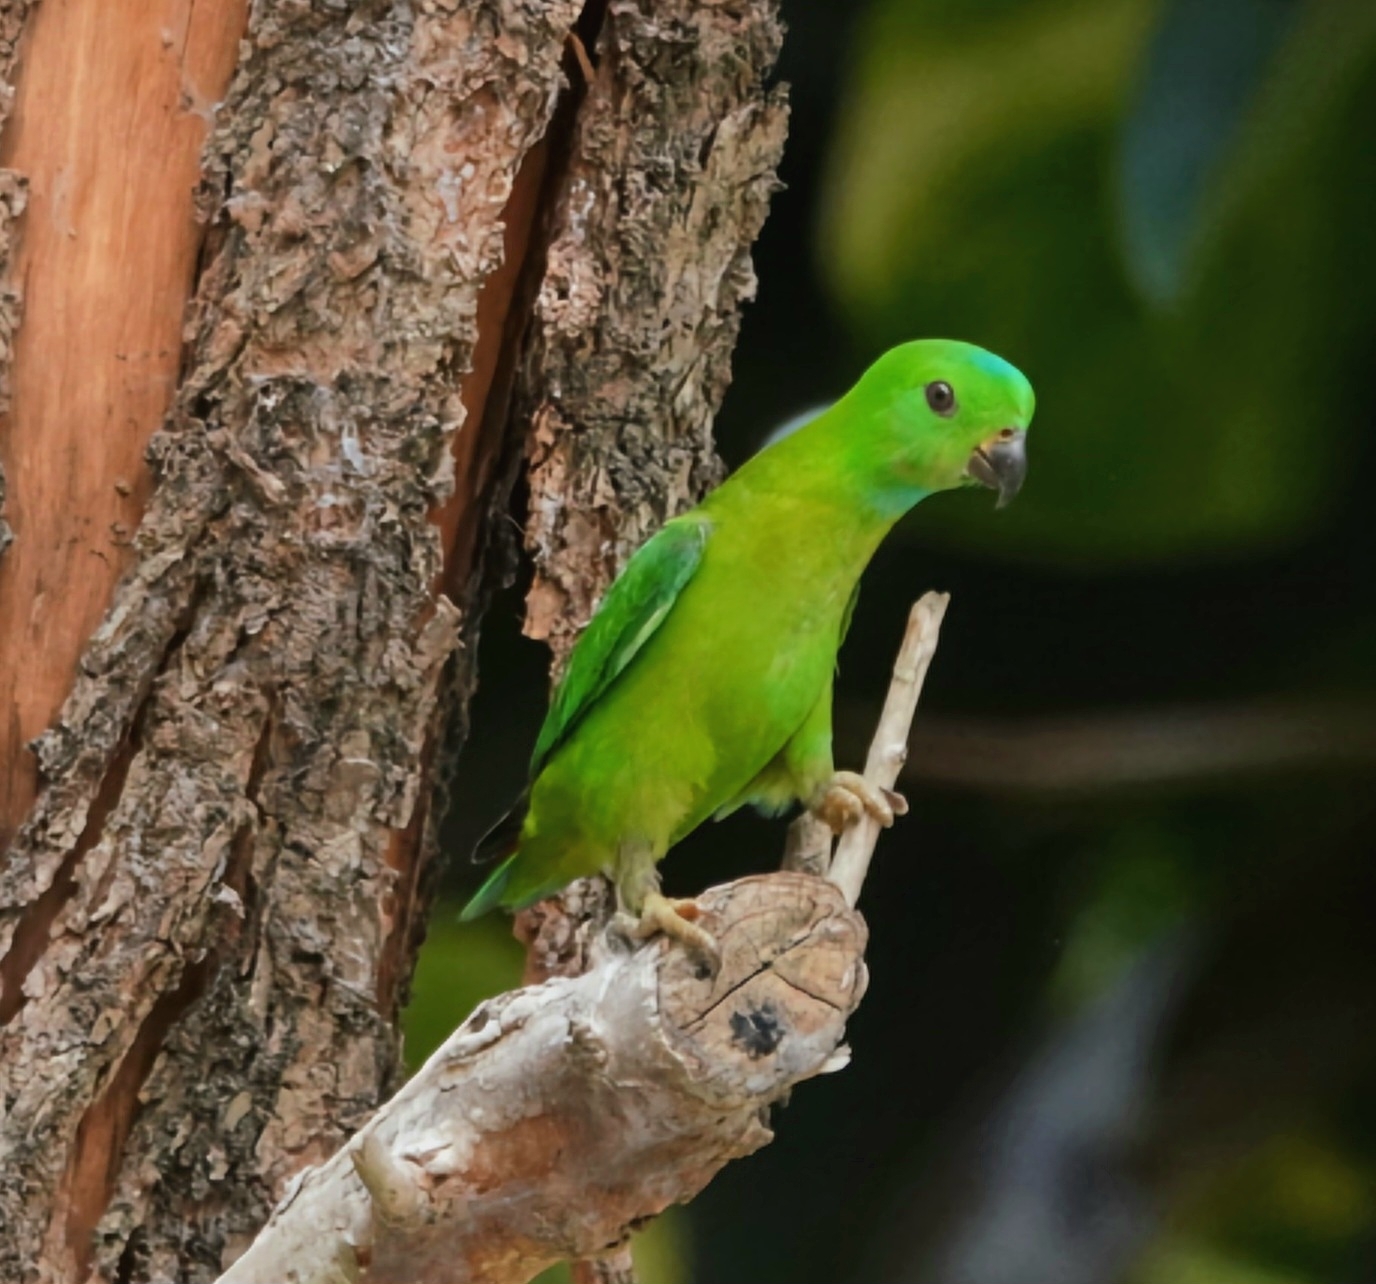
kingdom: Animalia
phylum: Chordata
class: Aves
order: Psittaciformes
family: Psittacidae
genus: Loriculus
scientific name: Loriculus galgulus
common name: Blue-crowned hanging parrot
